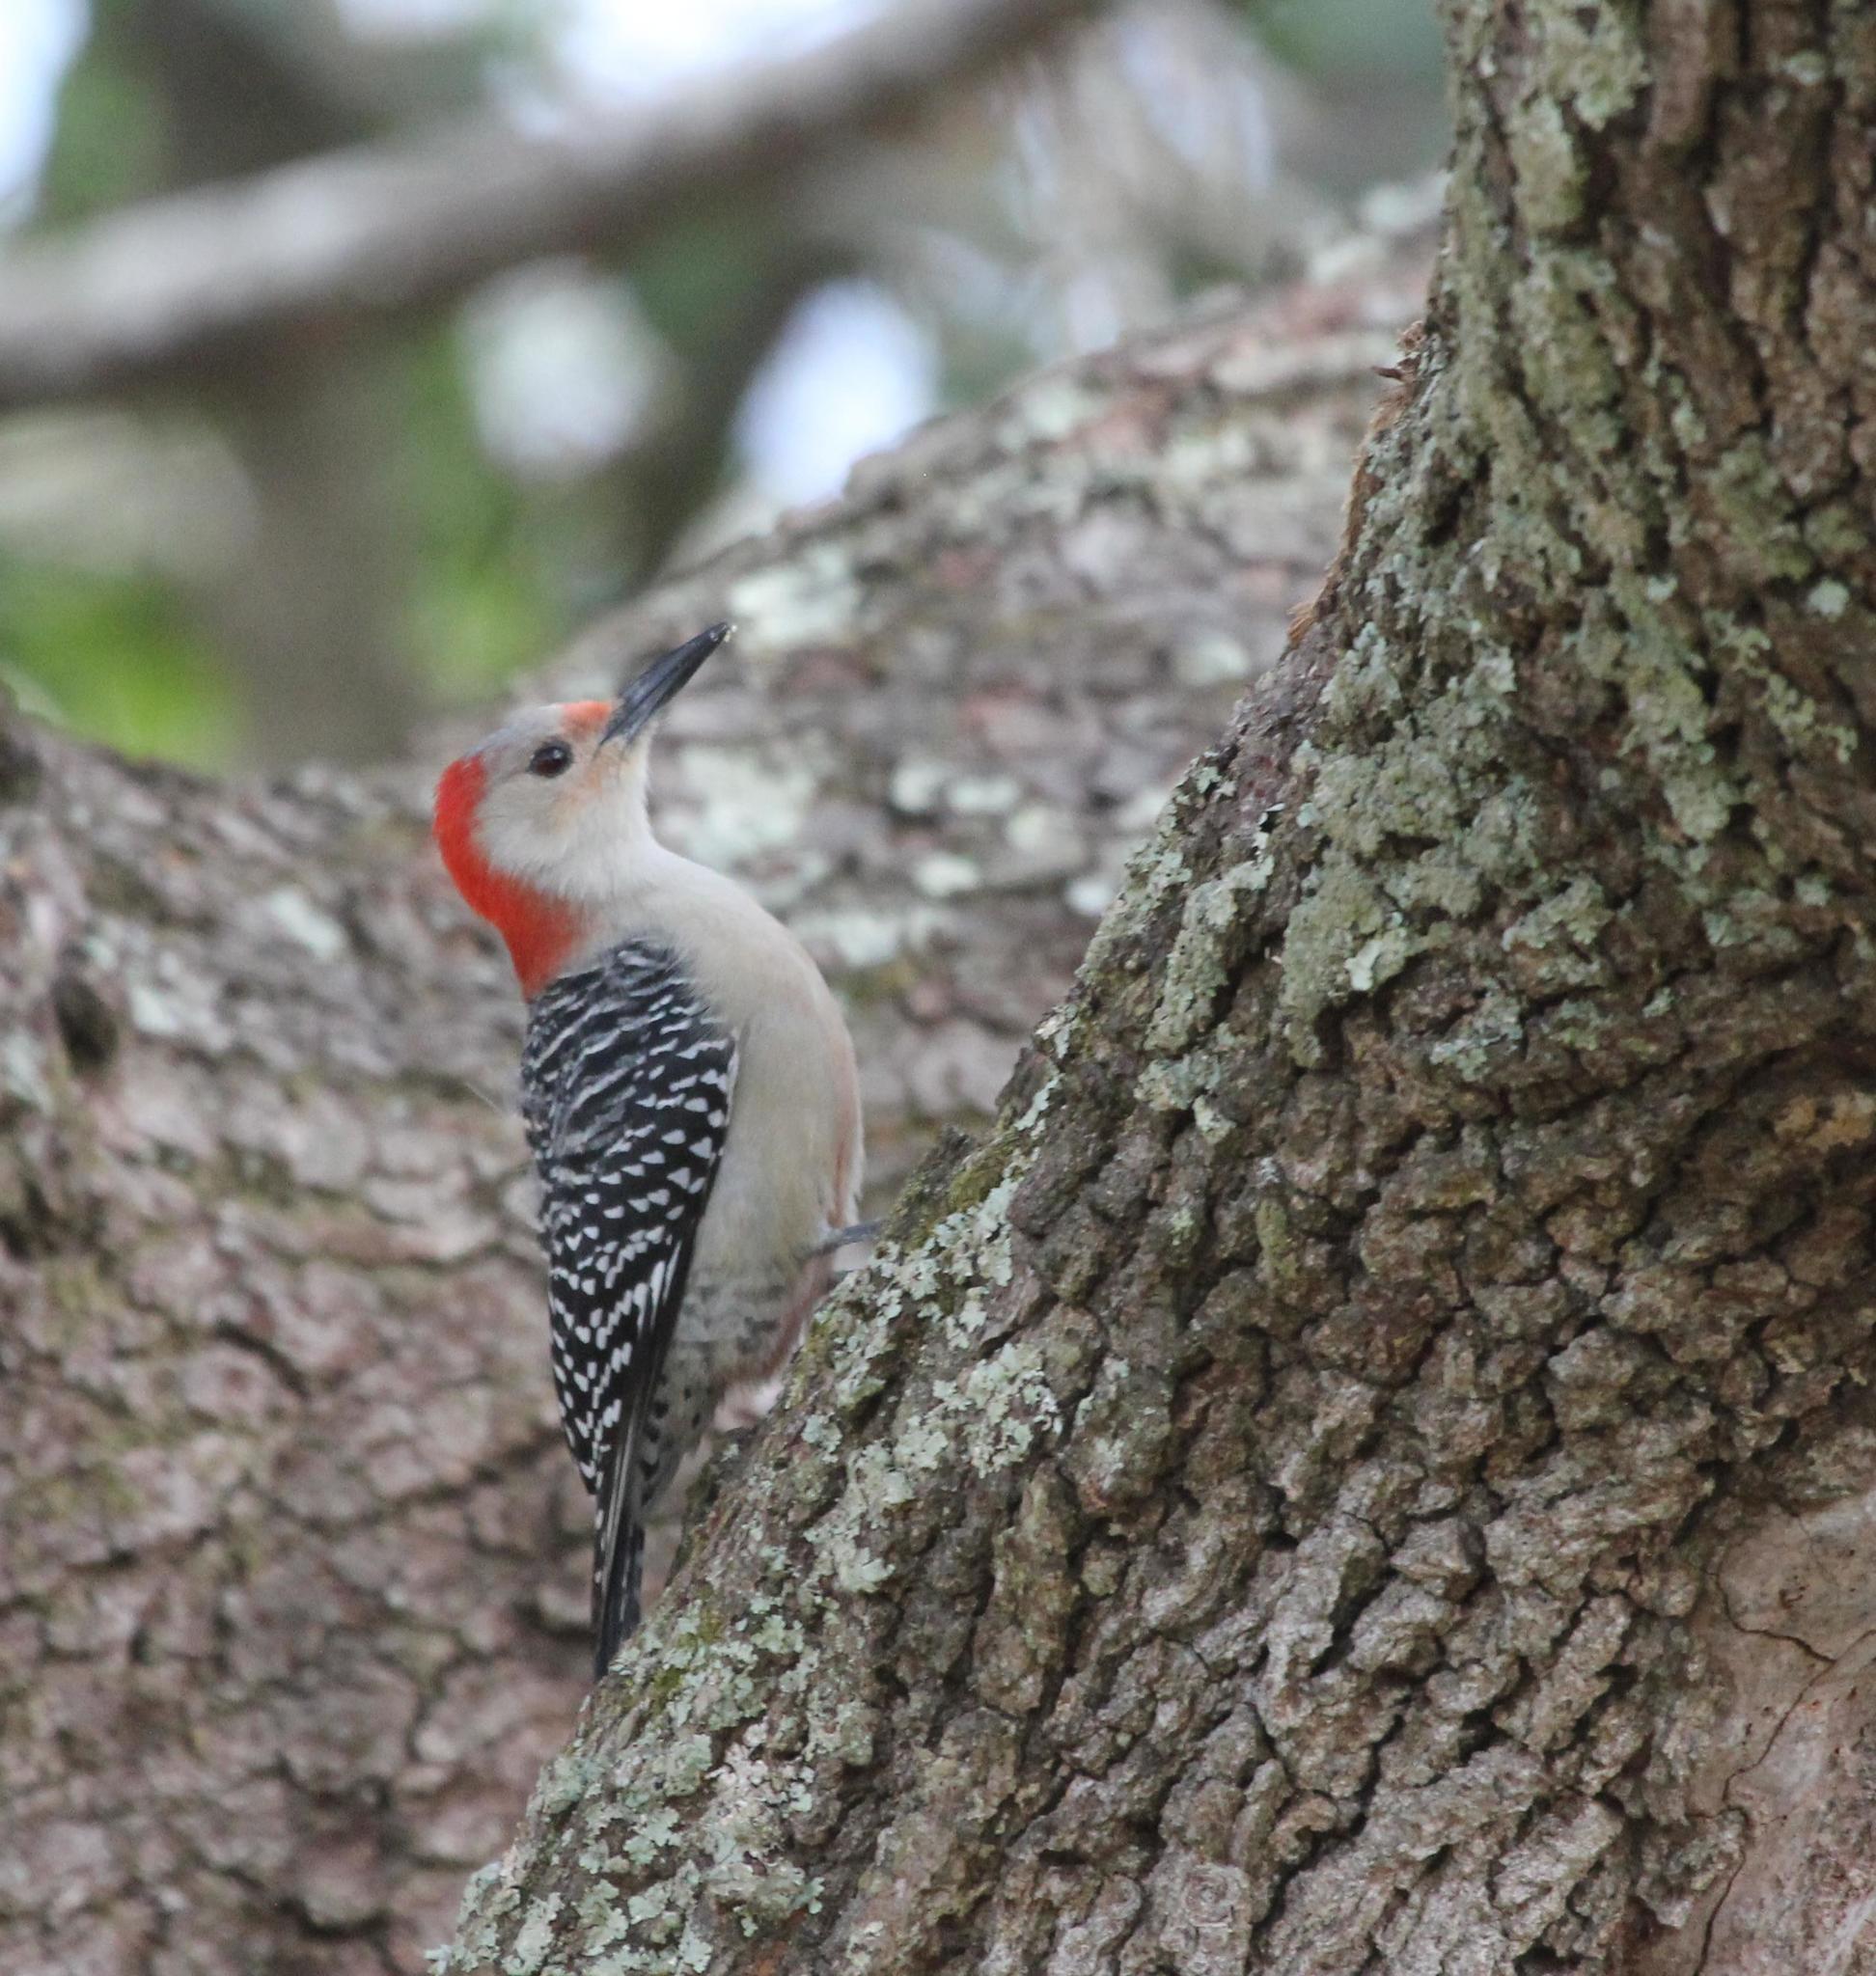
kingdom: Animalia
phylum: Chordata
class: Aves
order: Piciformes
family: Picidae
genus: Melanerpes
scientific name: Melanerpes carolinus
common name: Red-bellied woodpecker
